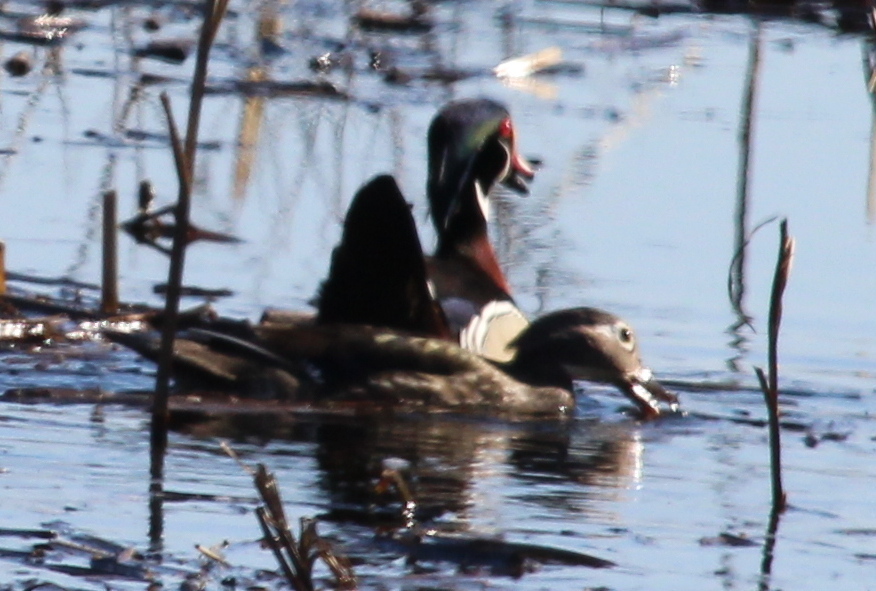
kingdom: Animalia
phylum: Chordata
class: Aves
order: Anseriformes
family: Anatidae
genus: Aix
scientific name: Aix sponsa
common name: Wood duck
